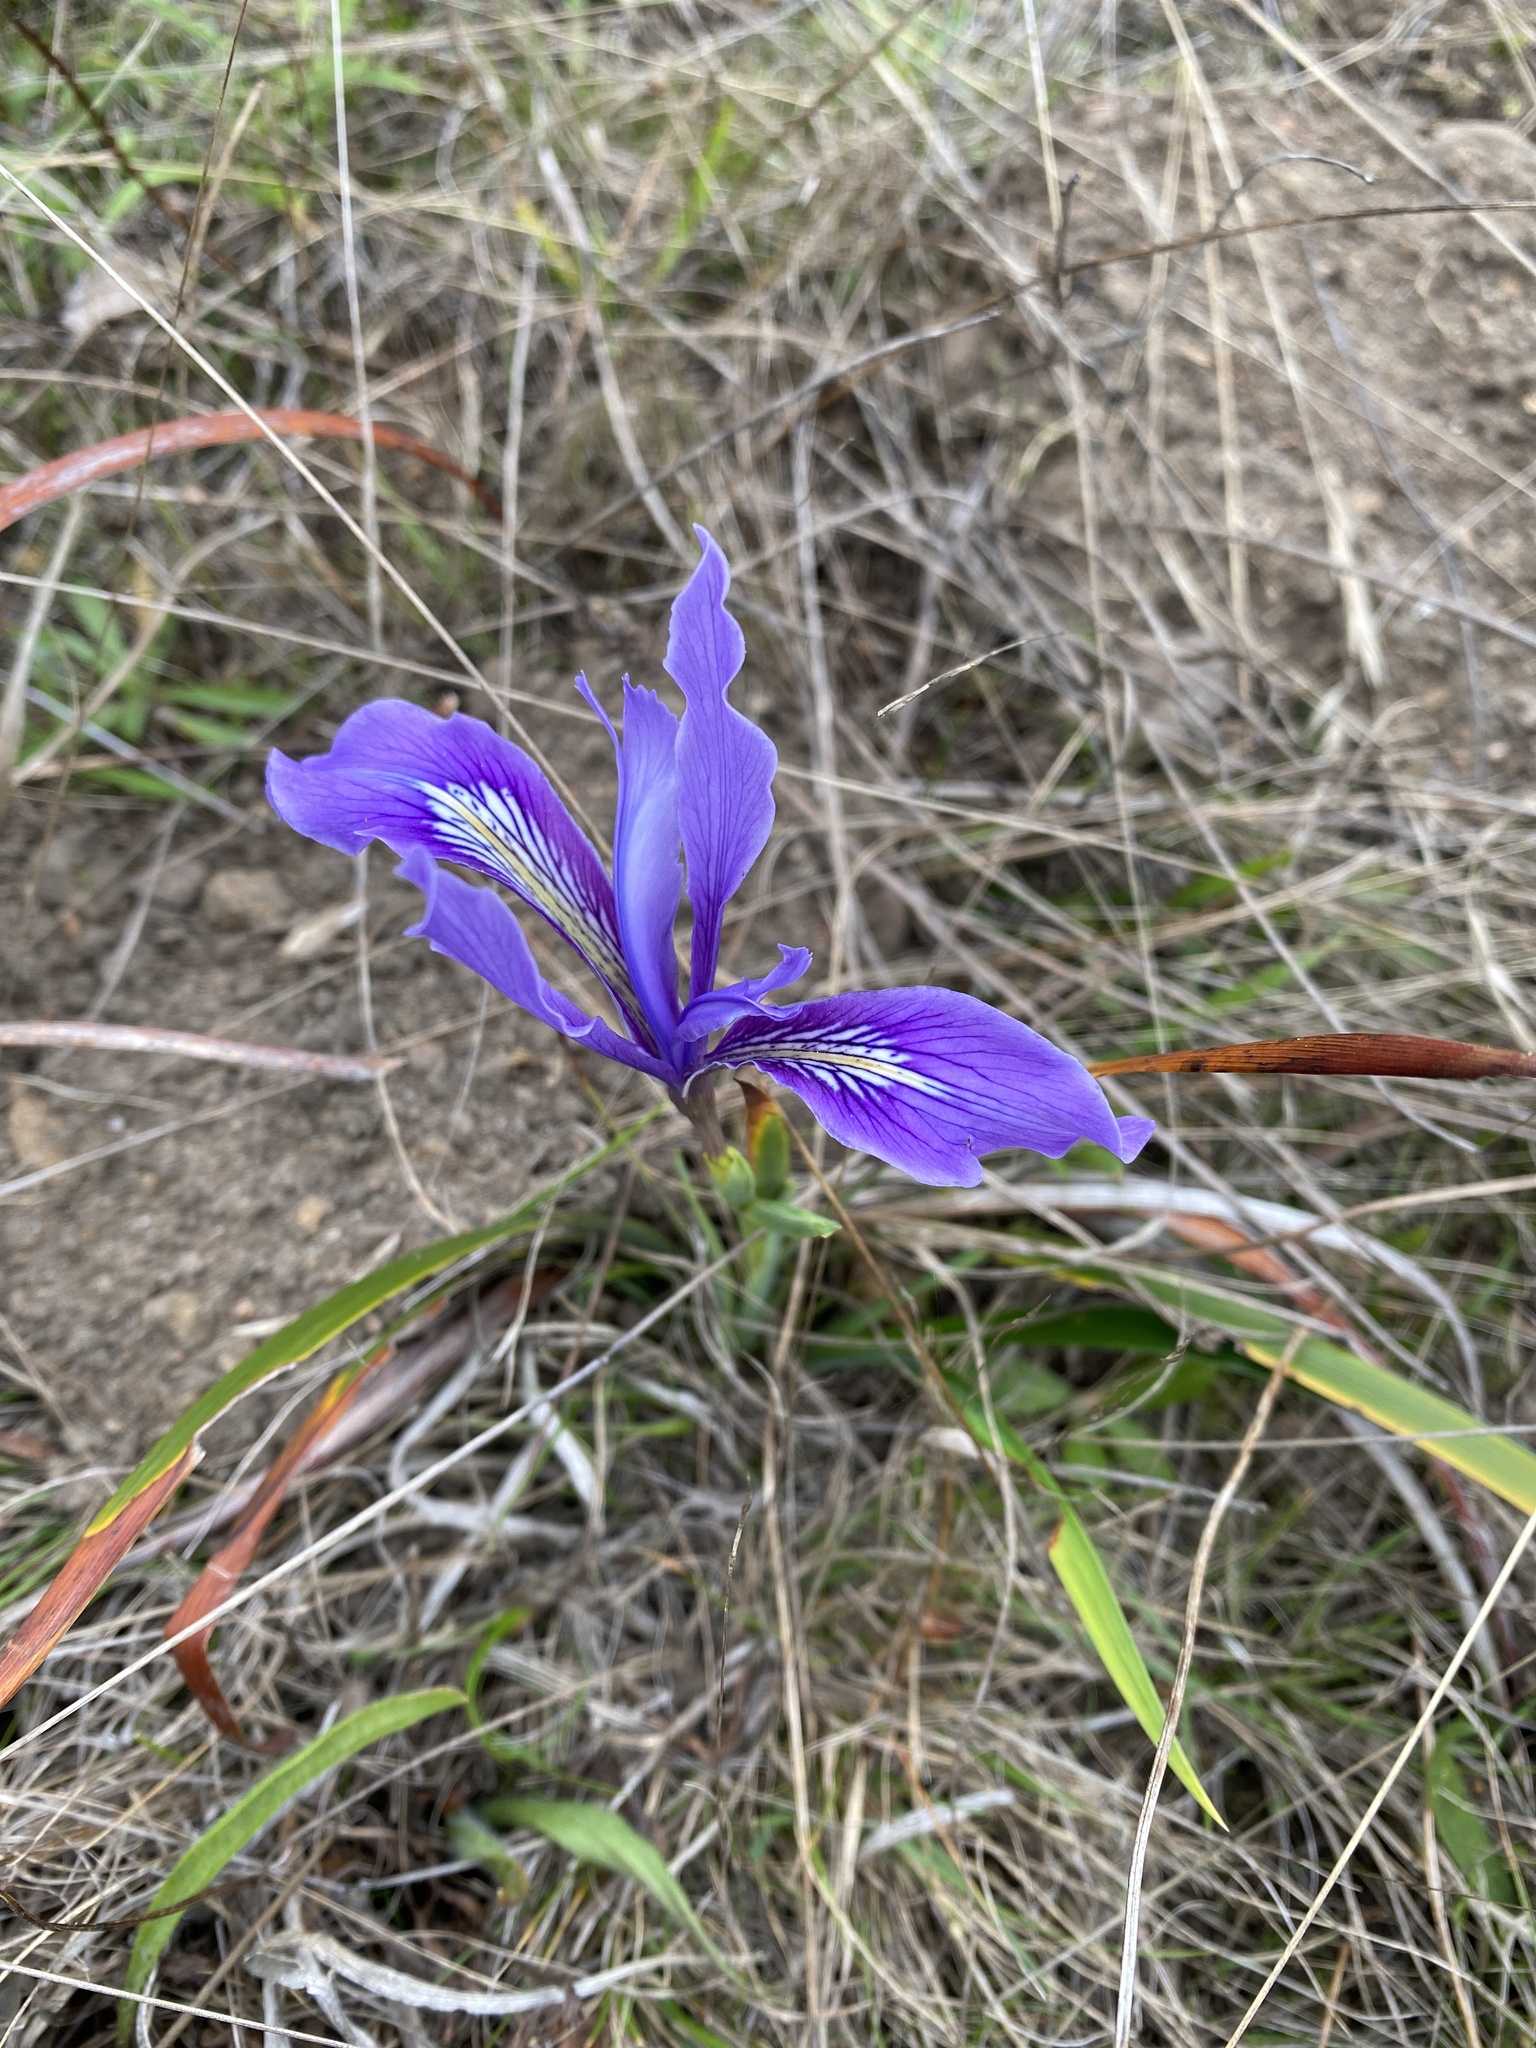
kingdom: Plantae
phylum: Tracheophyta
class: Liliopsida
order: Asparagales
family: Iridaceae
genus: Iris
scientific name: Iris douglasiana
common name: Marin iris
